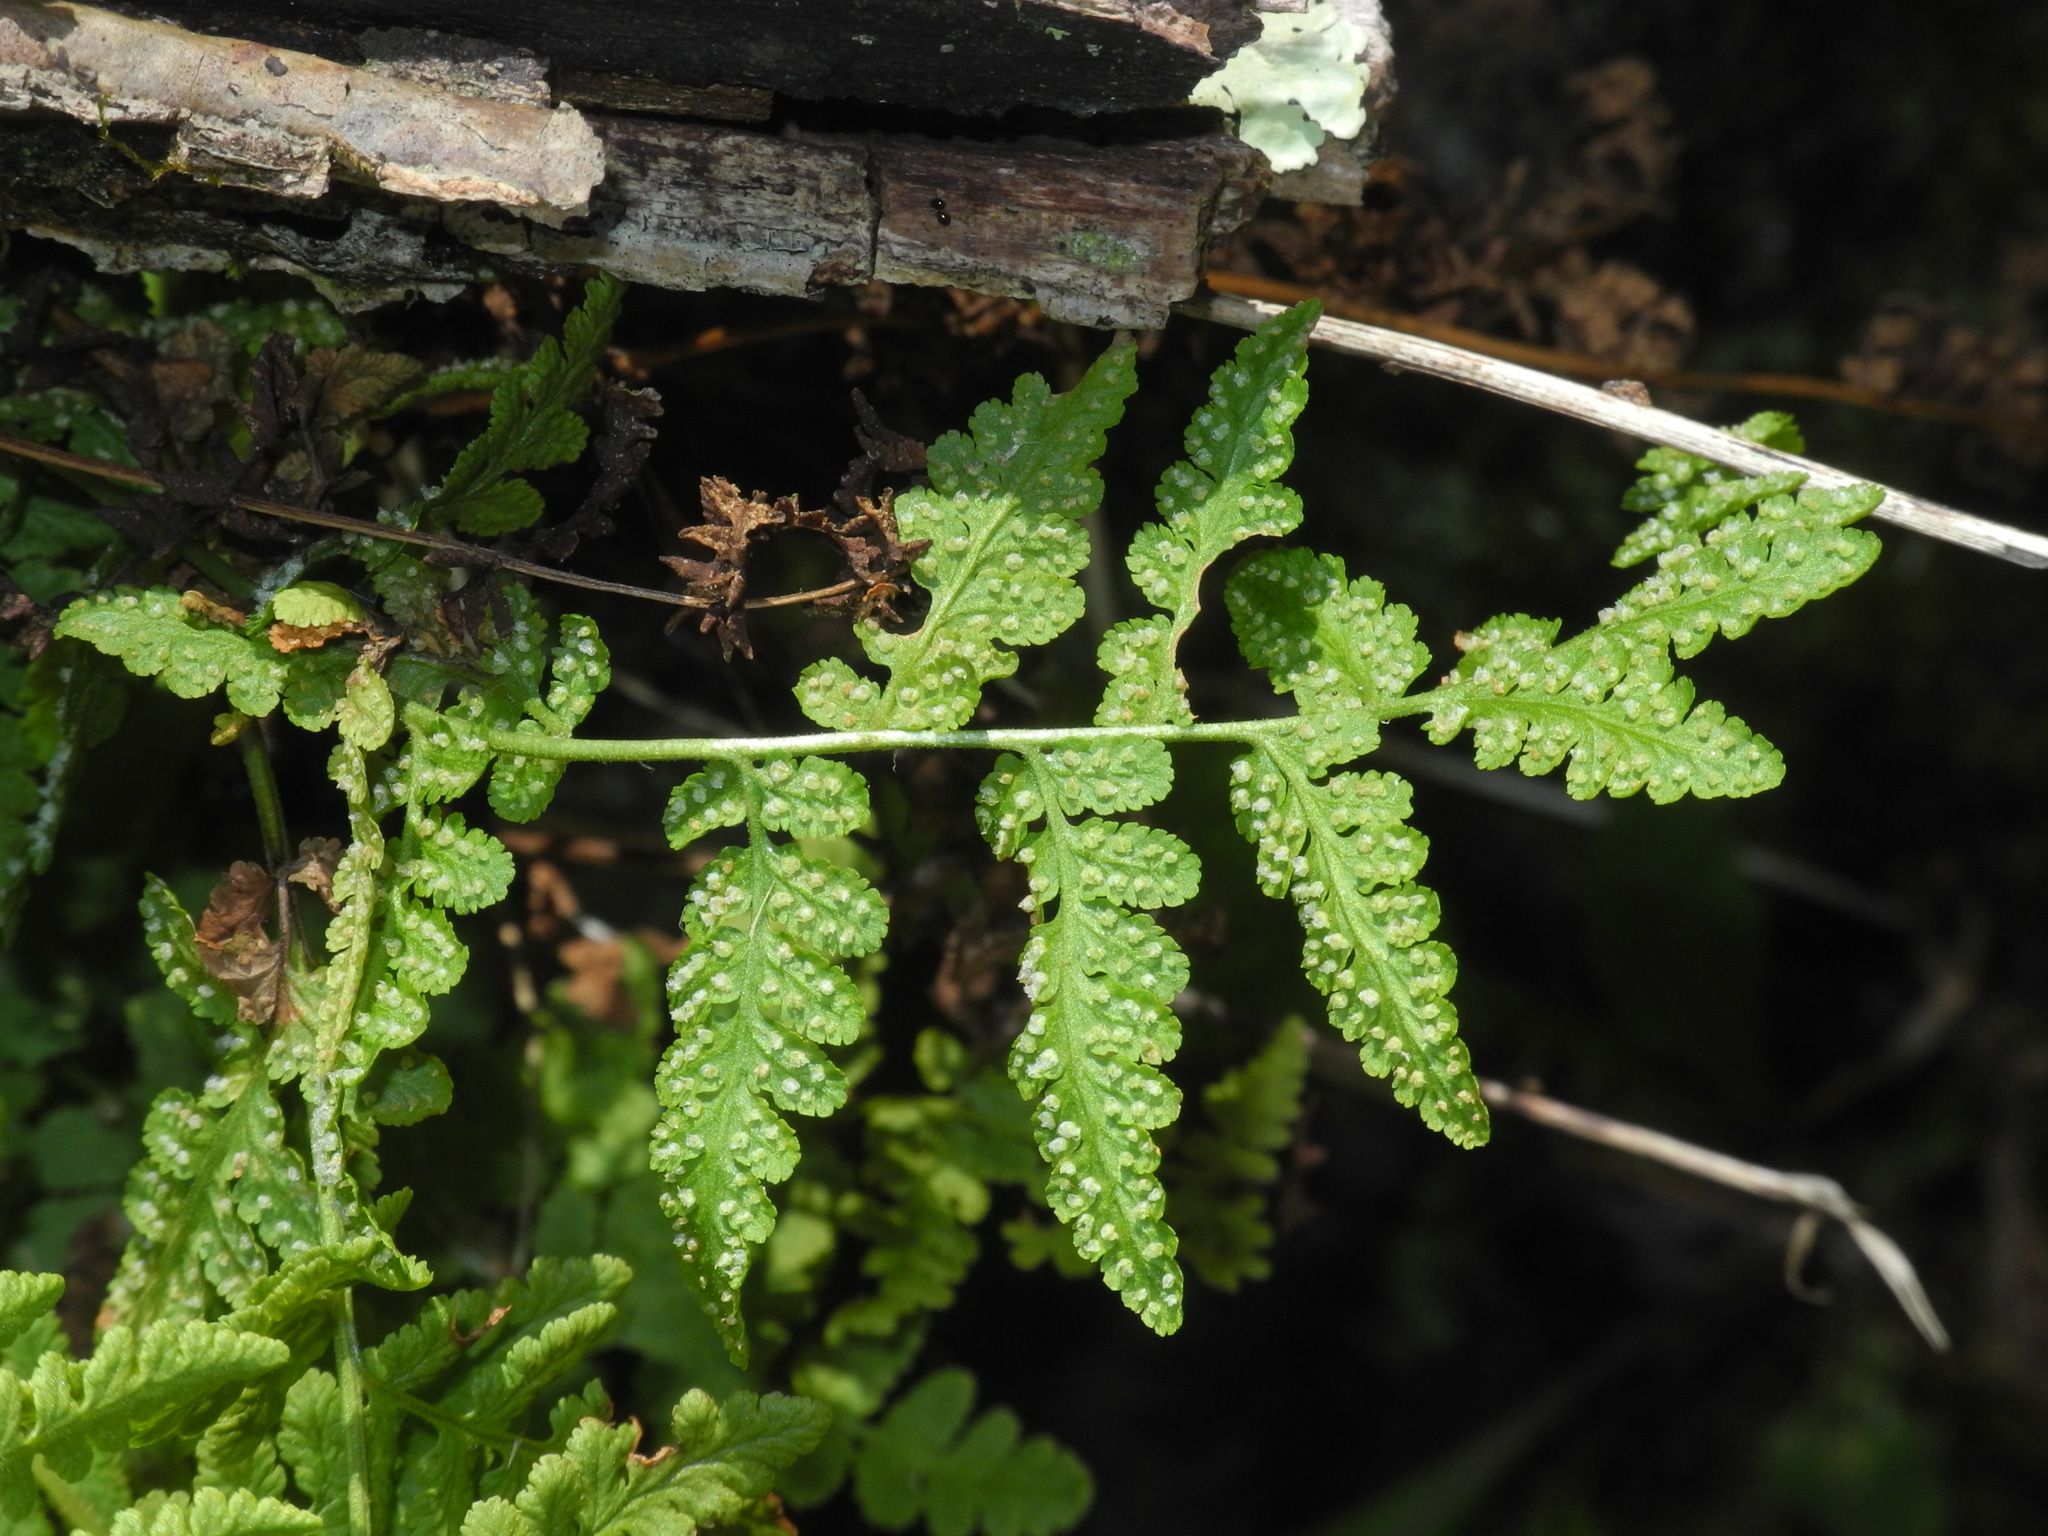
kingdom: Plantae
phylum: Tracheophyta
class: Polypodiopsida
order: Polypodiales
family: Woodsiaceae
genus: Physematium
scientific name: Physematium obtusum
